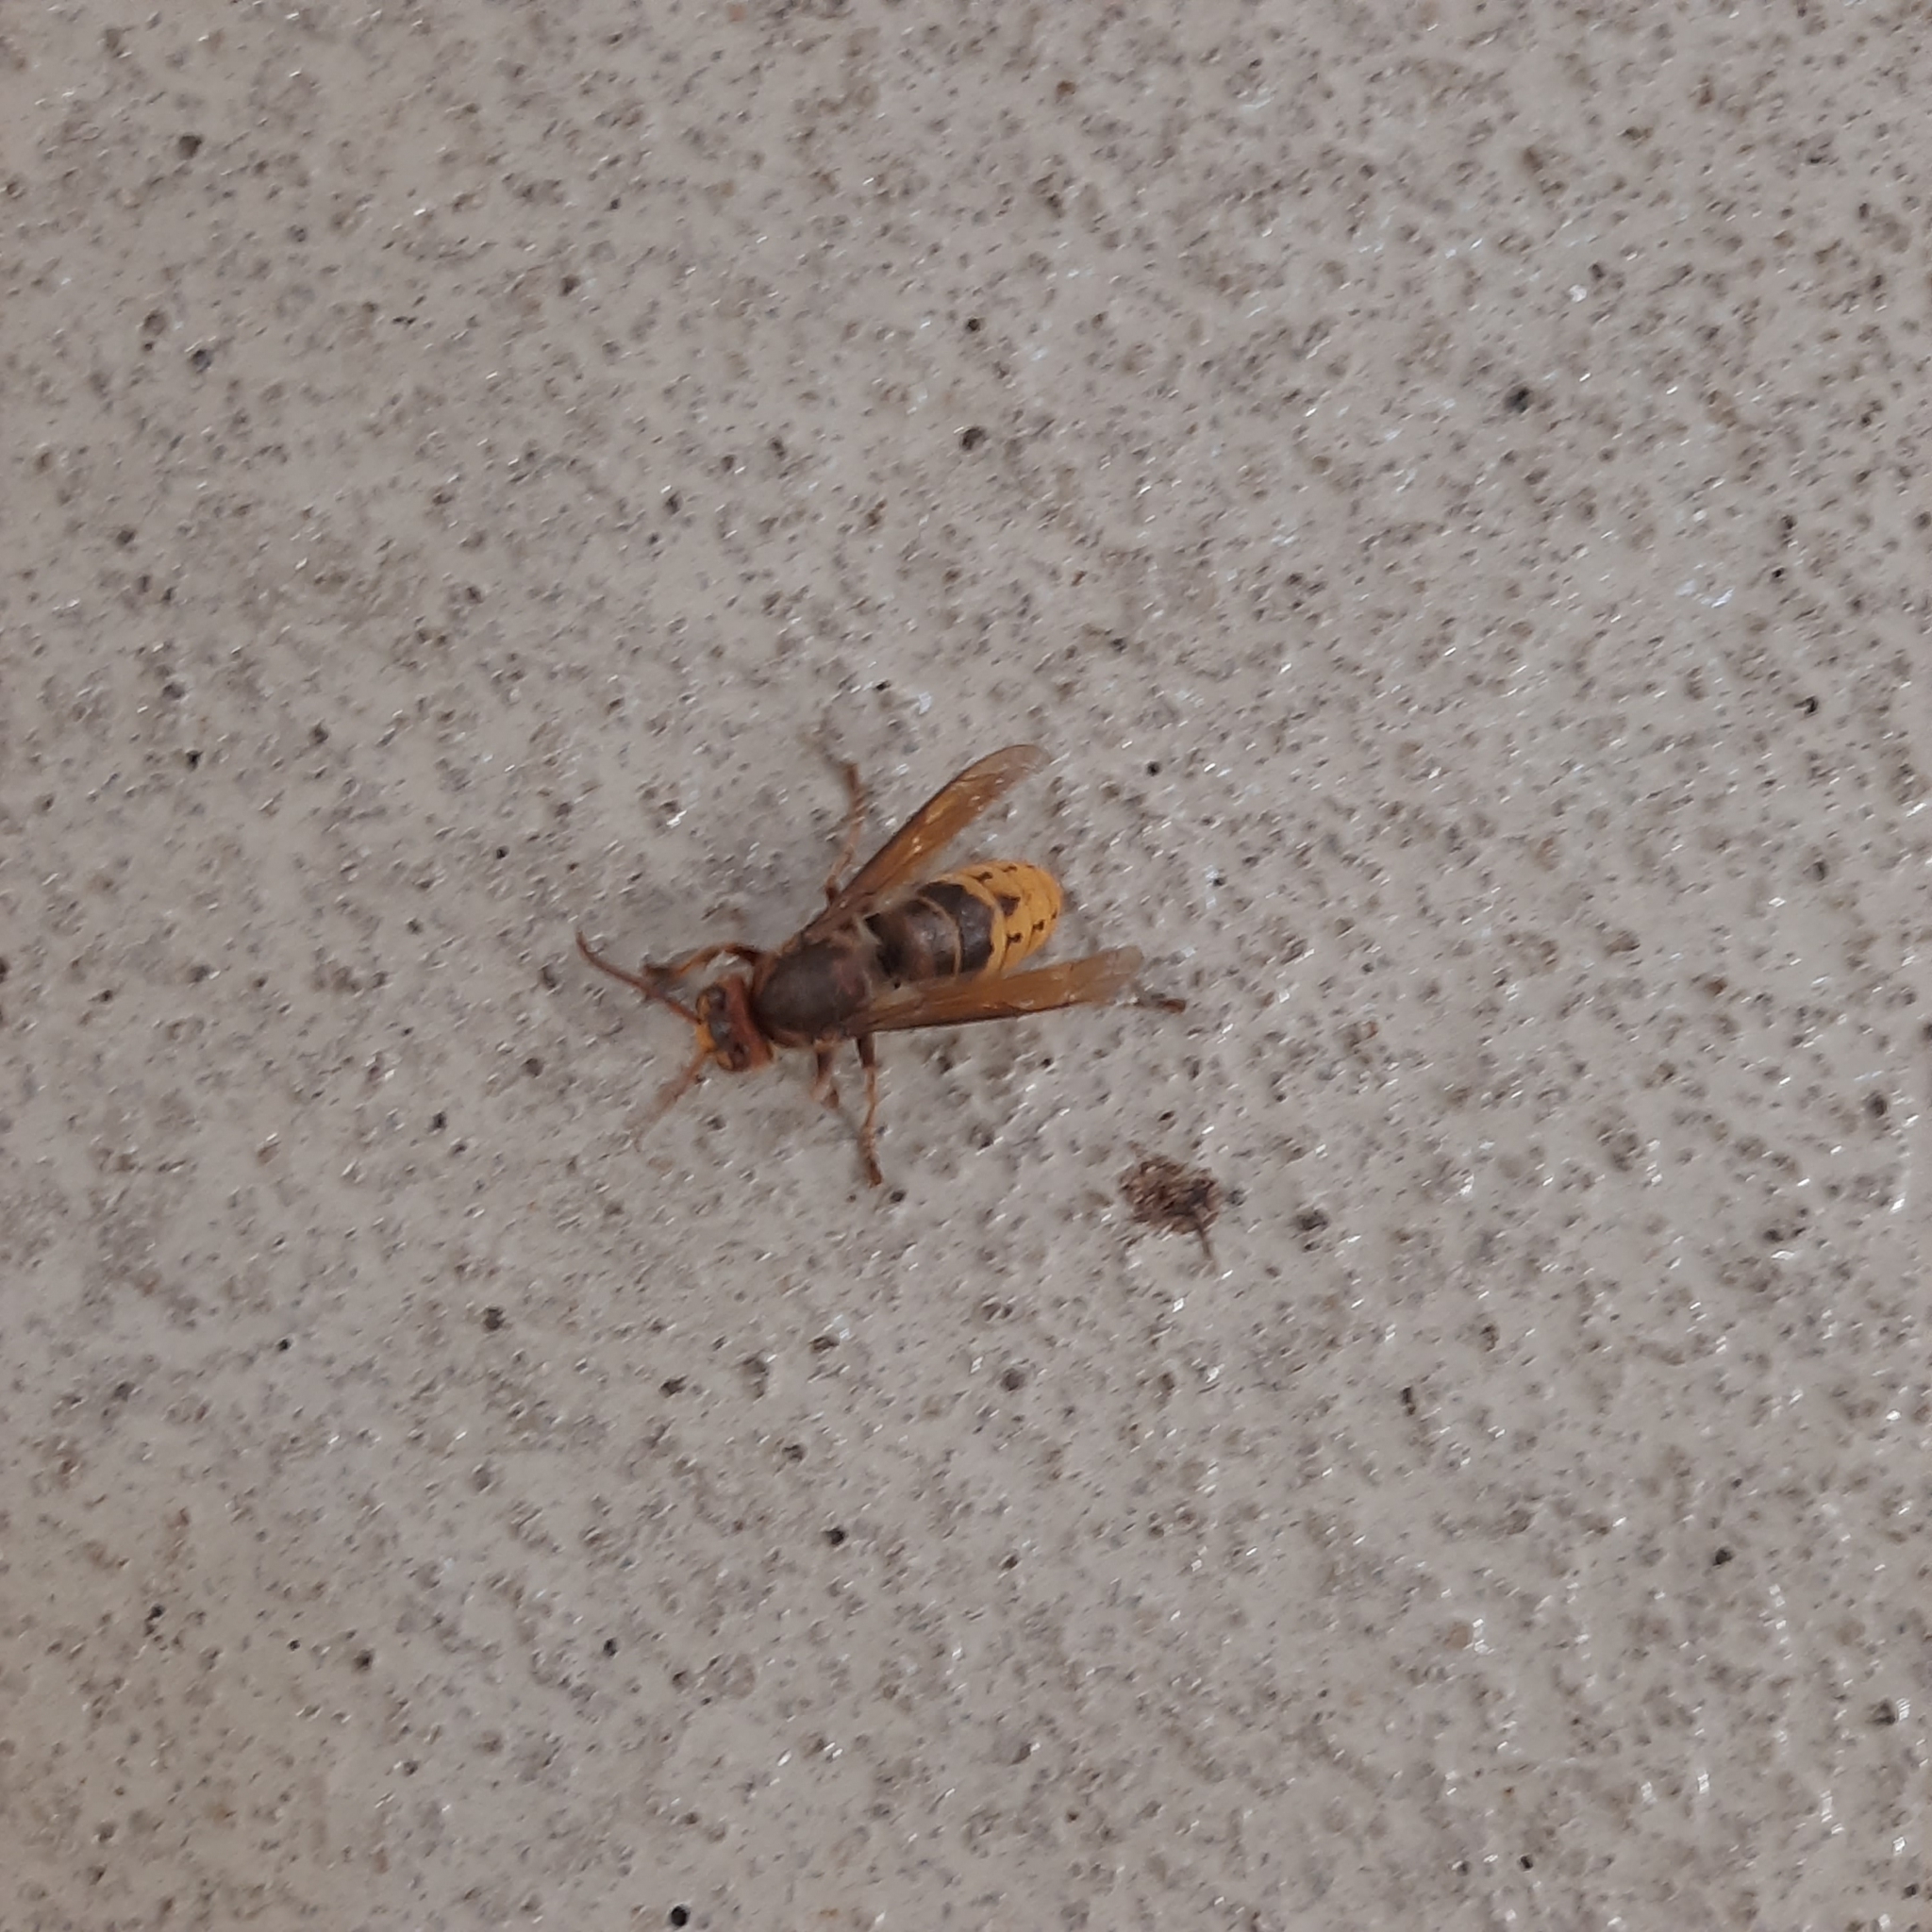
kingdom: Animalia
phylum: Arthropoda
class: Insecta
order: Hymenoptera
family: Vespidae
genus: Vespa
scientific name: Vespa crabro
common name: Hornet
